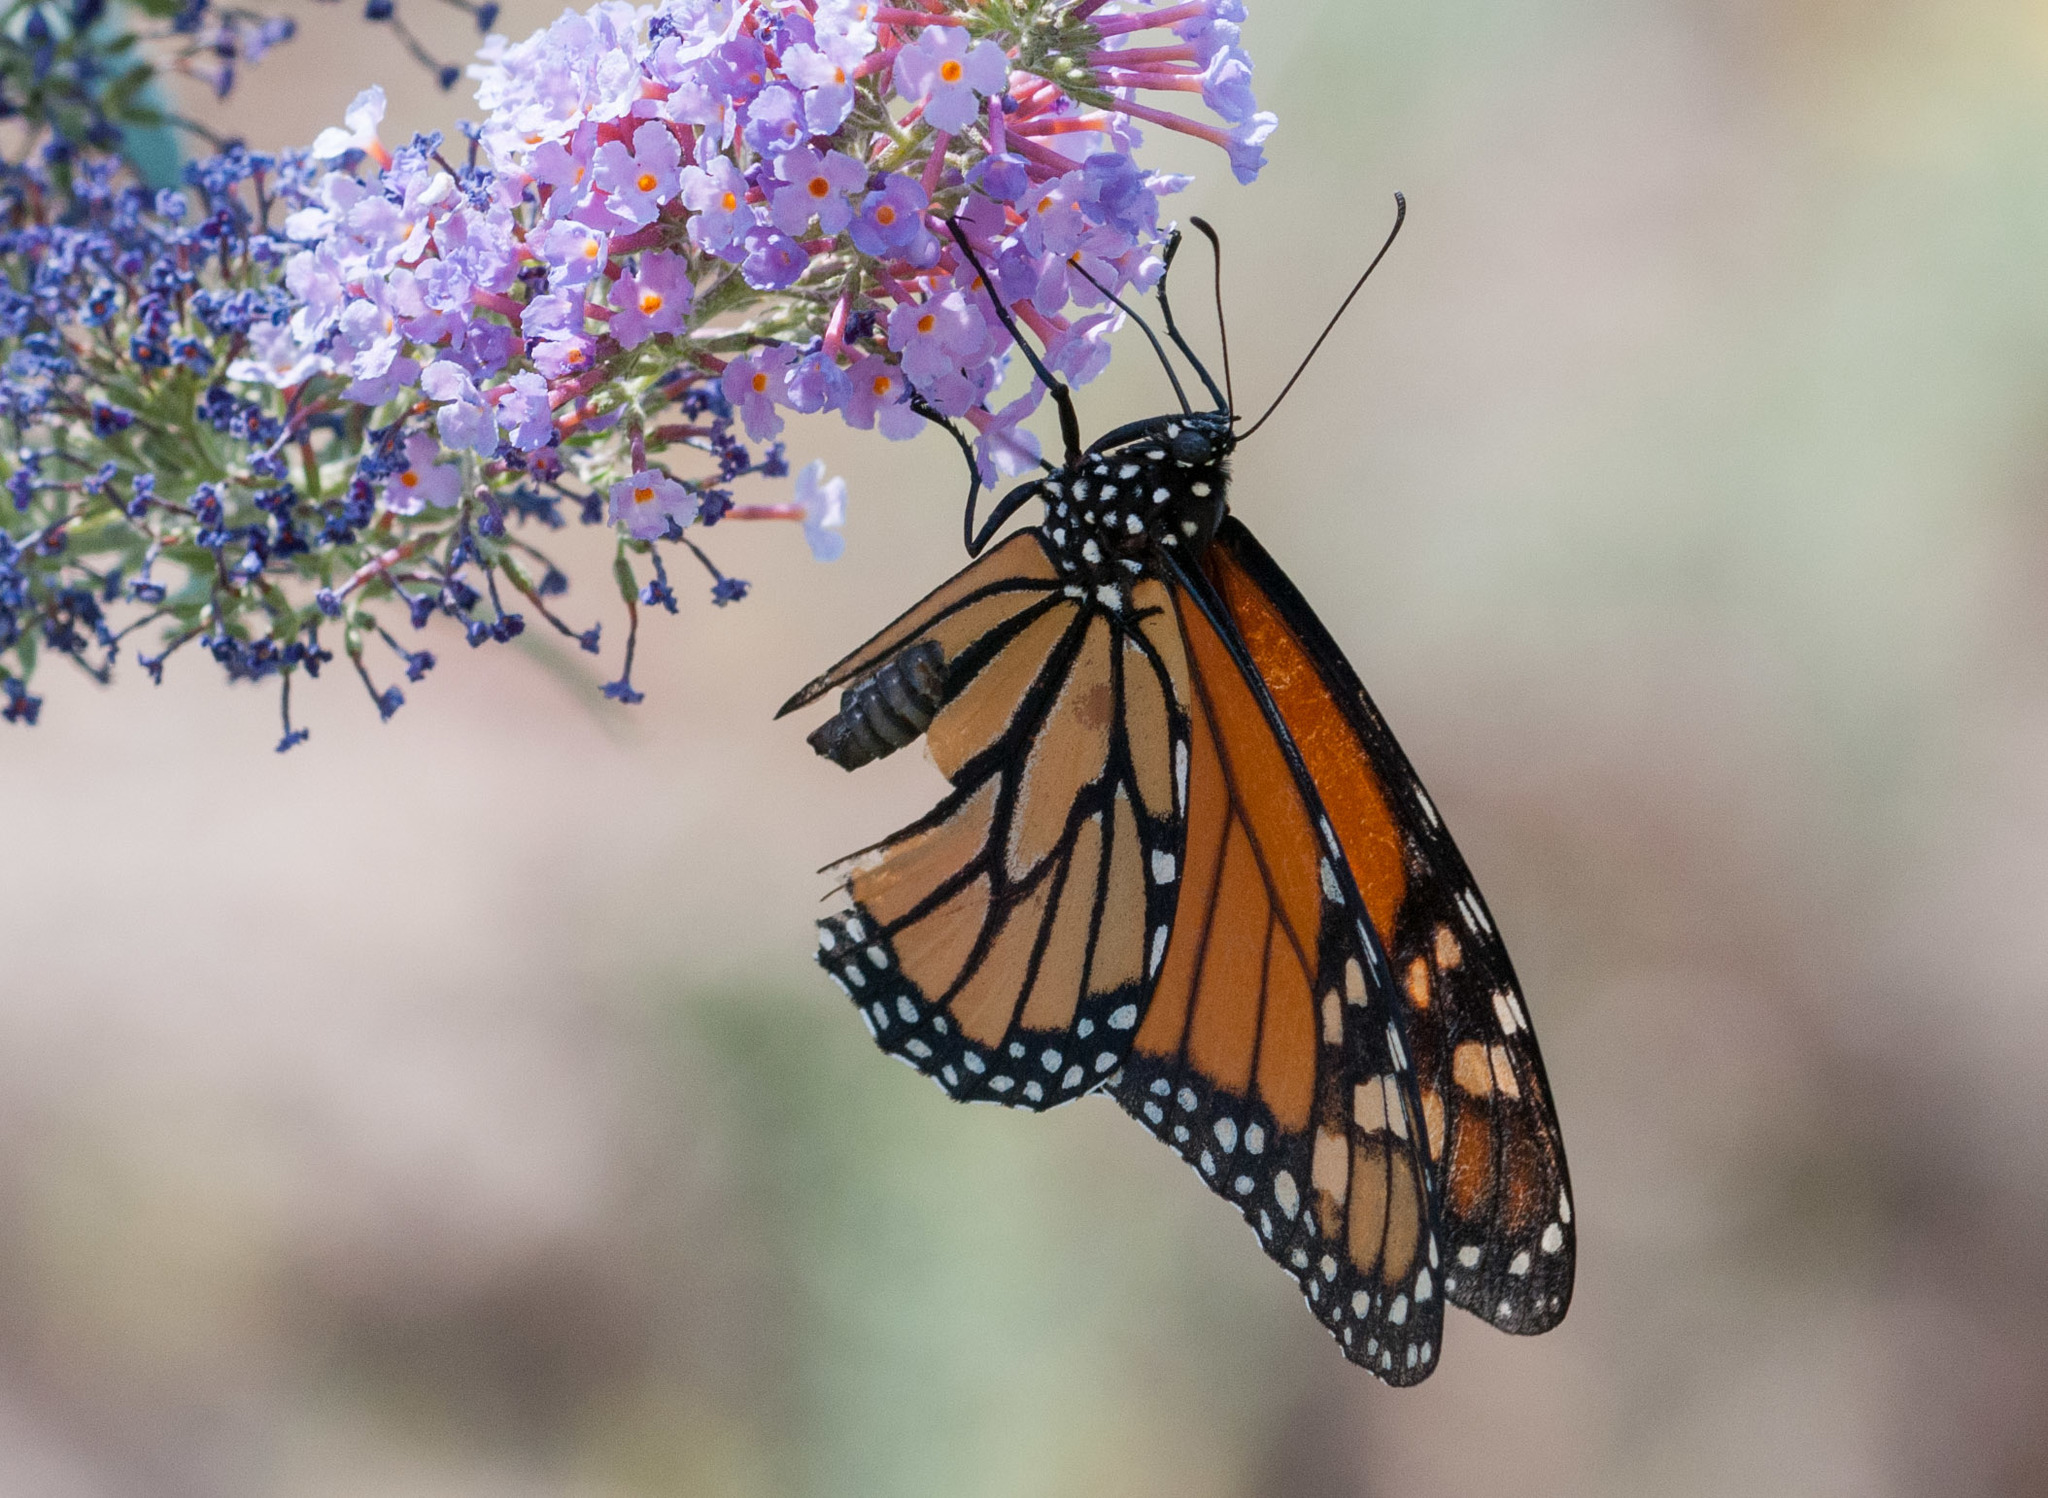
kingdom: Animalia
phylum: Arthropoda
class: Insecta
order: Lepidoptera
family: Nymphalidae
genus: Danaus
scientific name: Danaus plexippus
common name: Monarch
